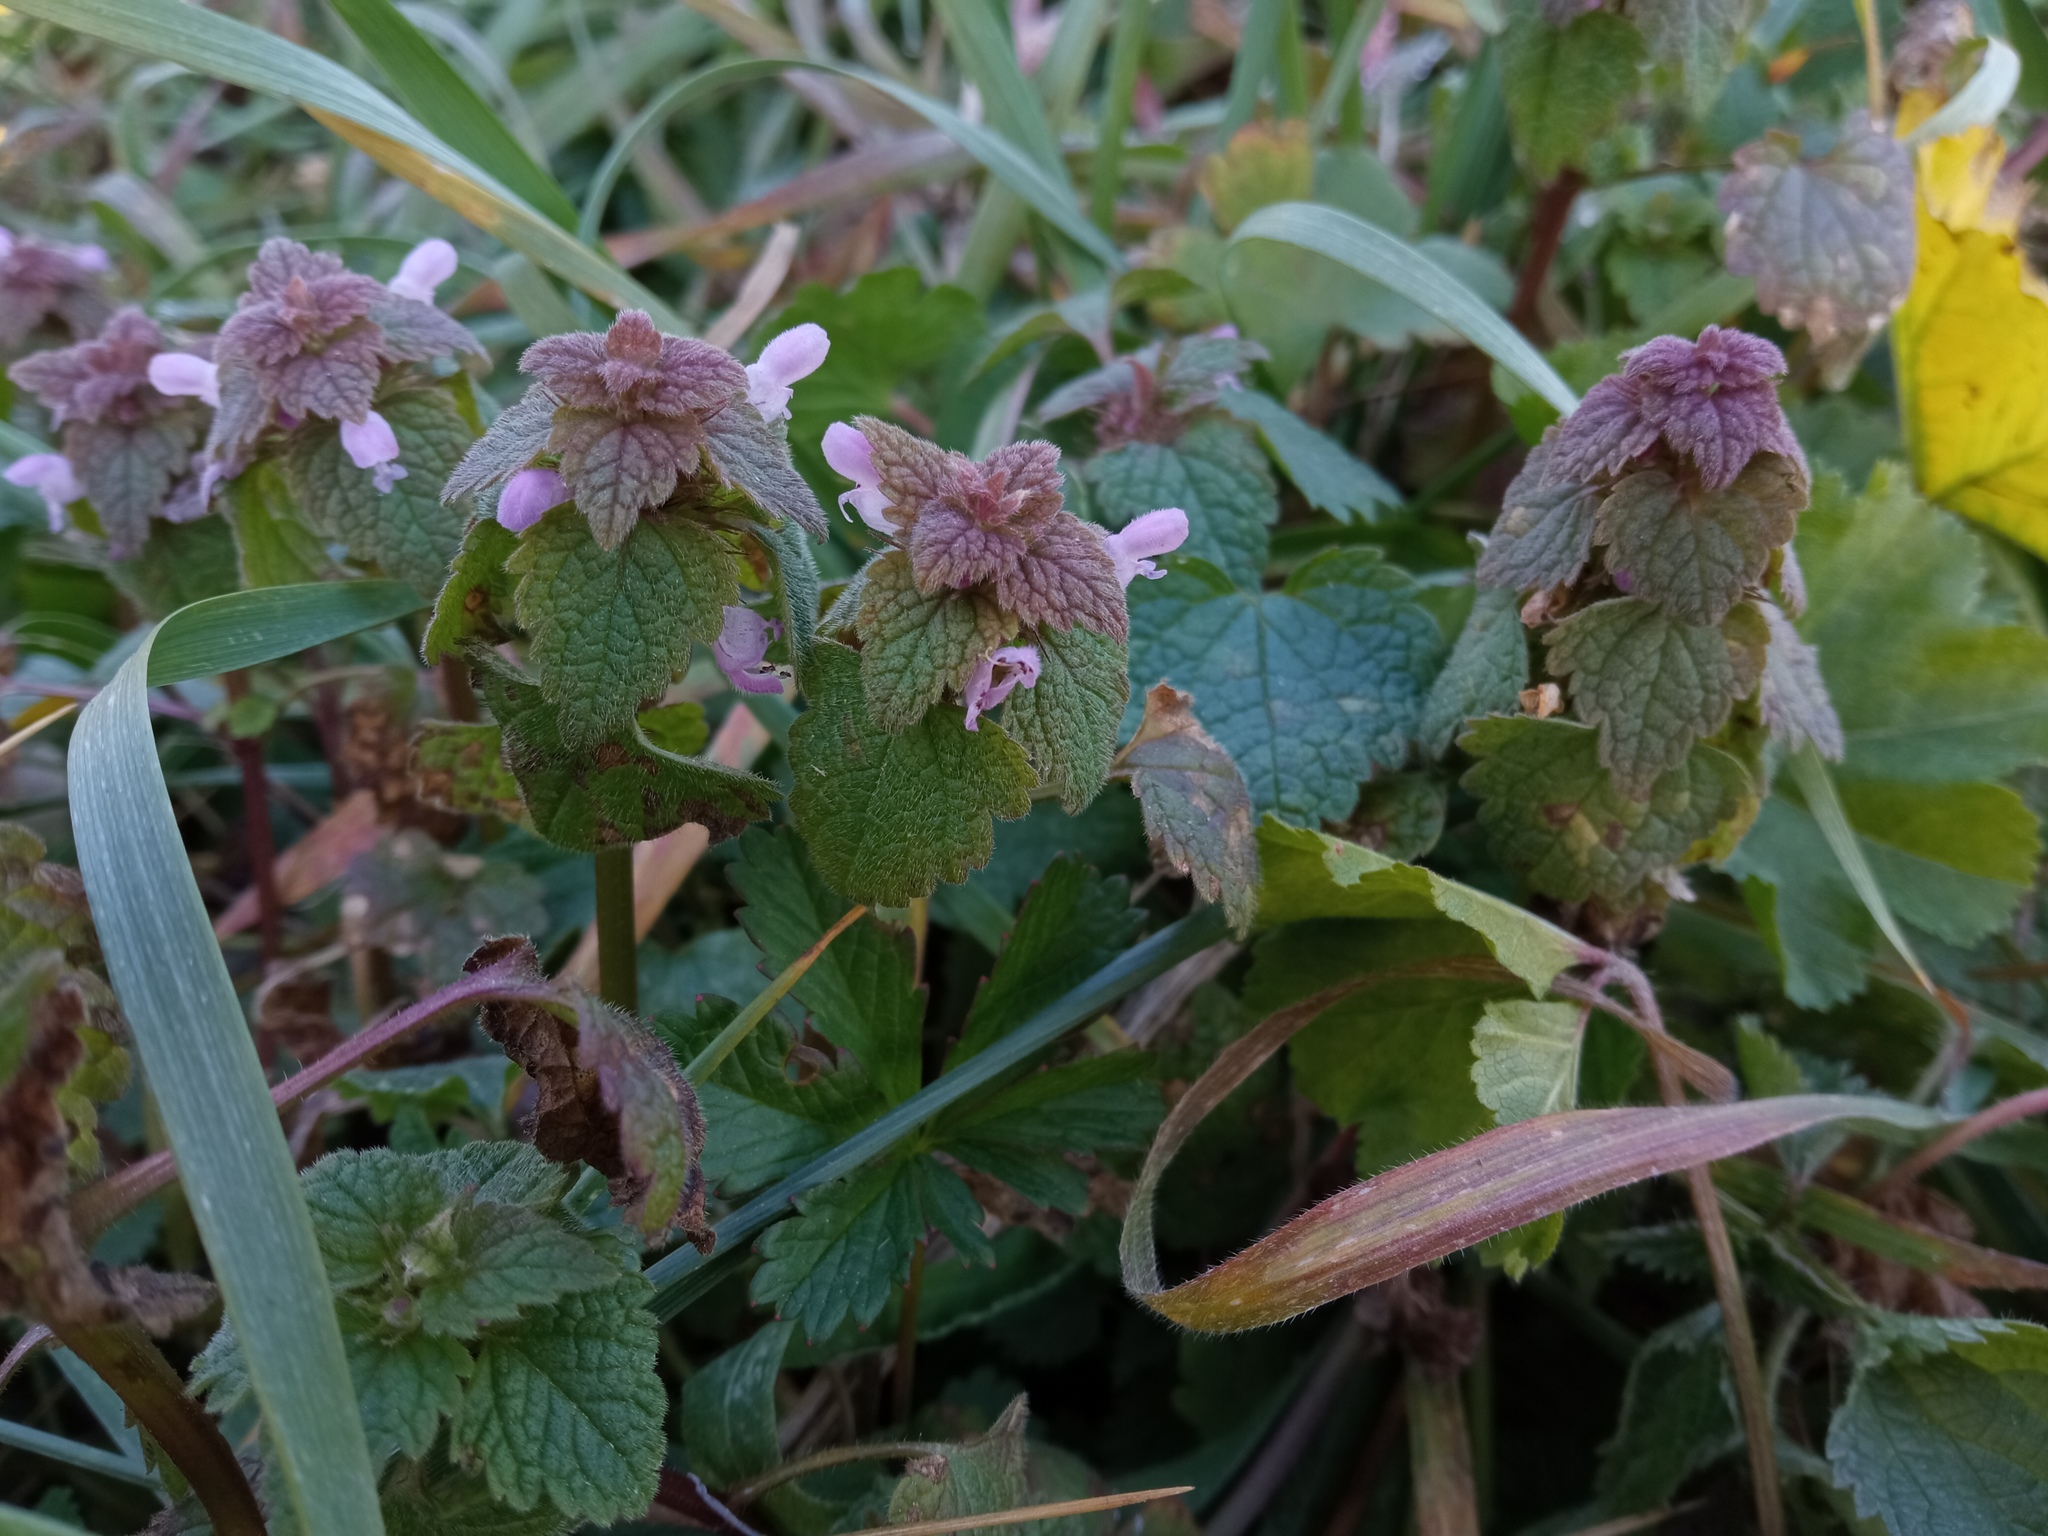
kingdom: Plantae
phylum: Tracheophyta
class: Magnoliopsida
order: Lamiales
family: Lamiaceae
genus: Lamium
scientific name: Lamium purpureum
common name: Red dead-nettle
